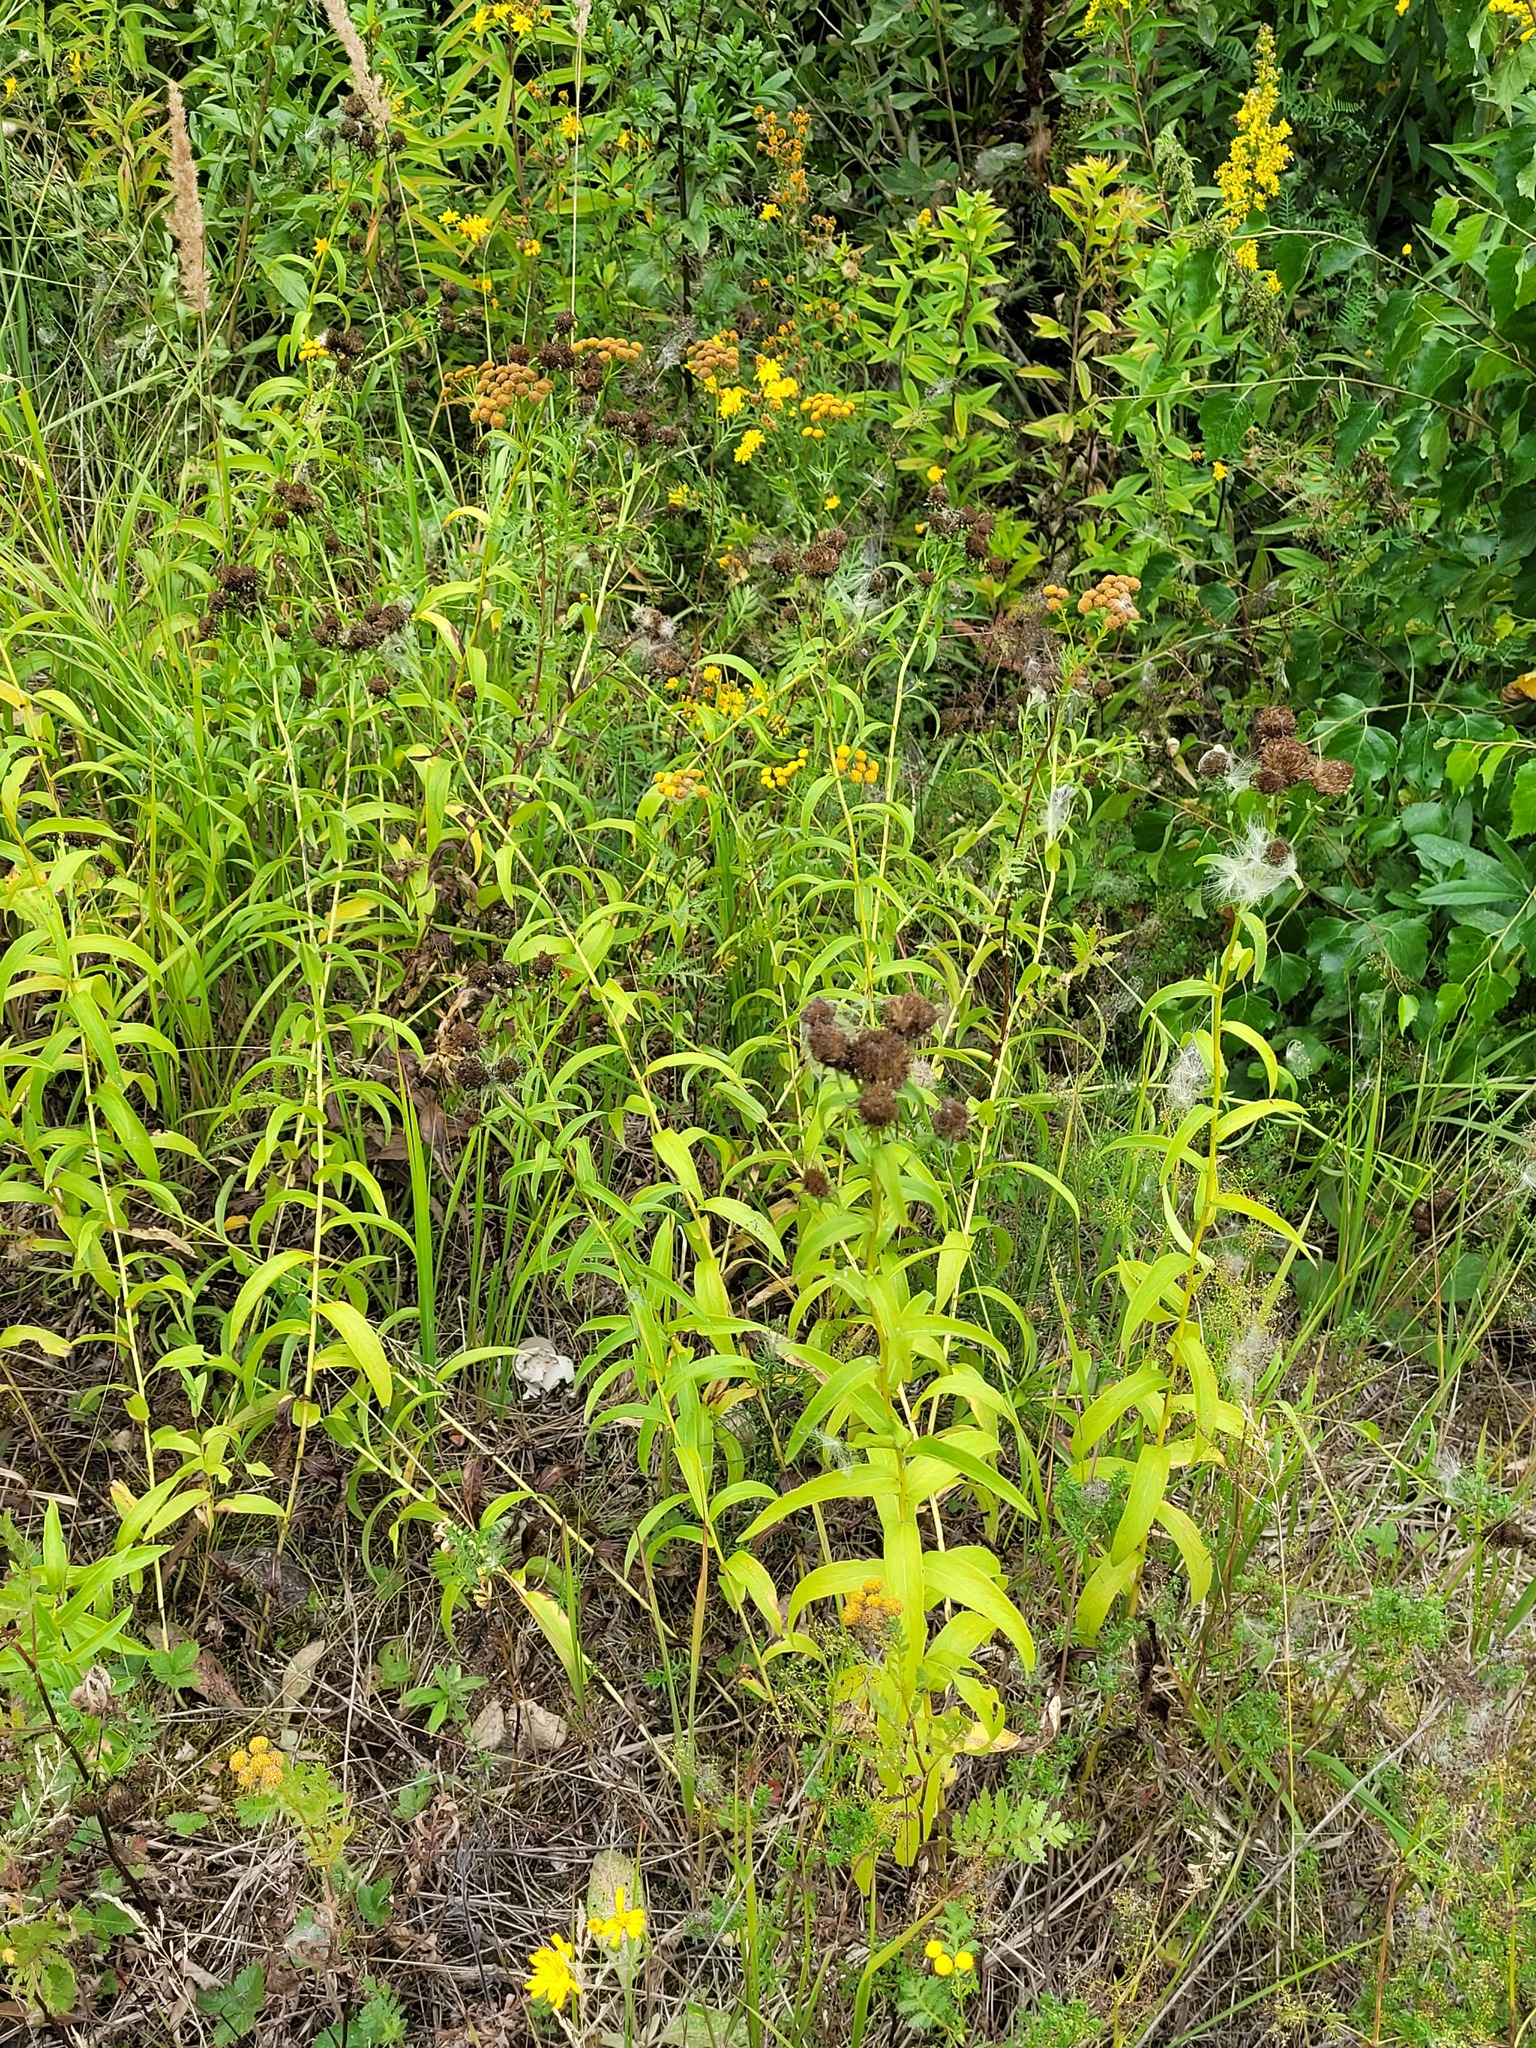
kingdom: Plantae
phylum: Tracheophyta
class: Magnoliopsida
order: Asterales
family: Asteraceae
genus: Pentanema
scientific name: Pentanema salicinum
